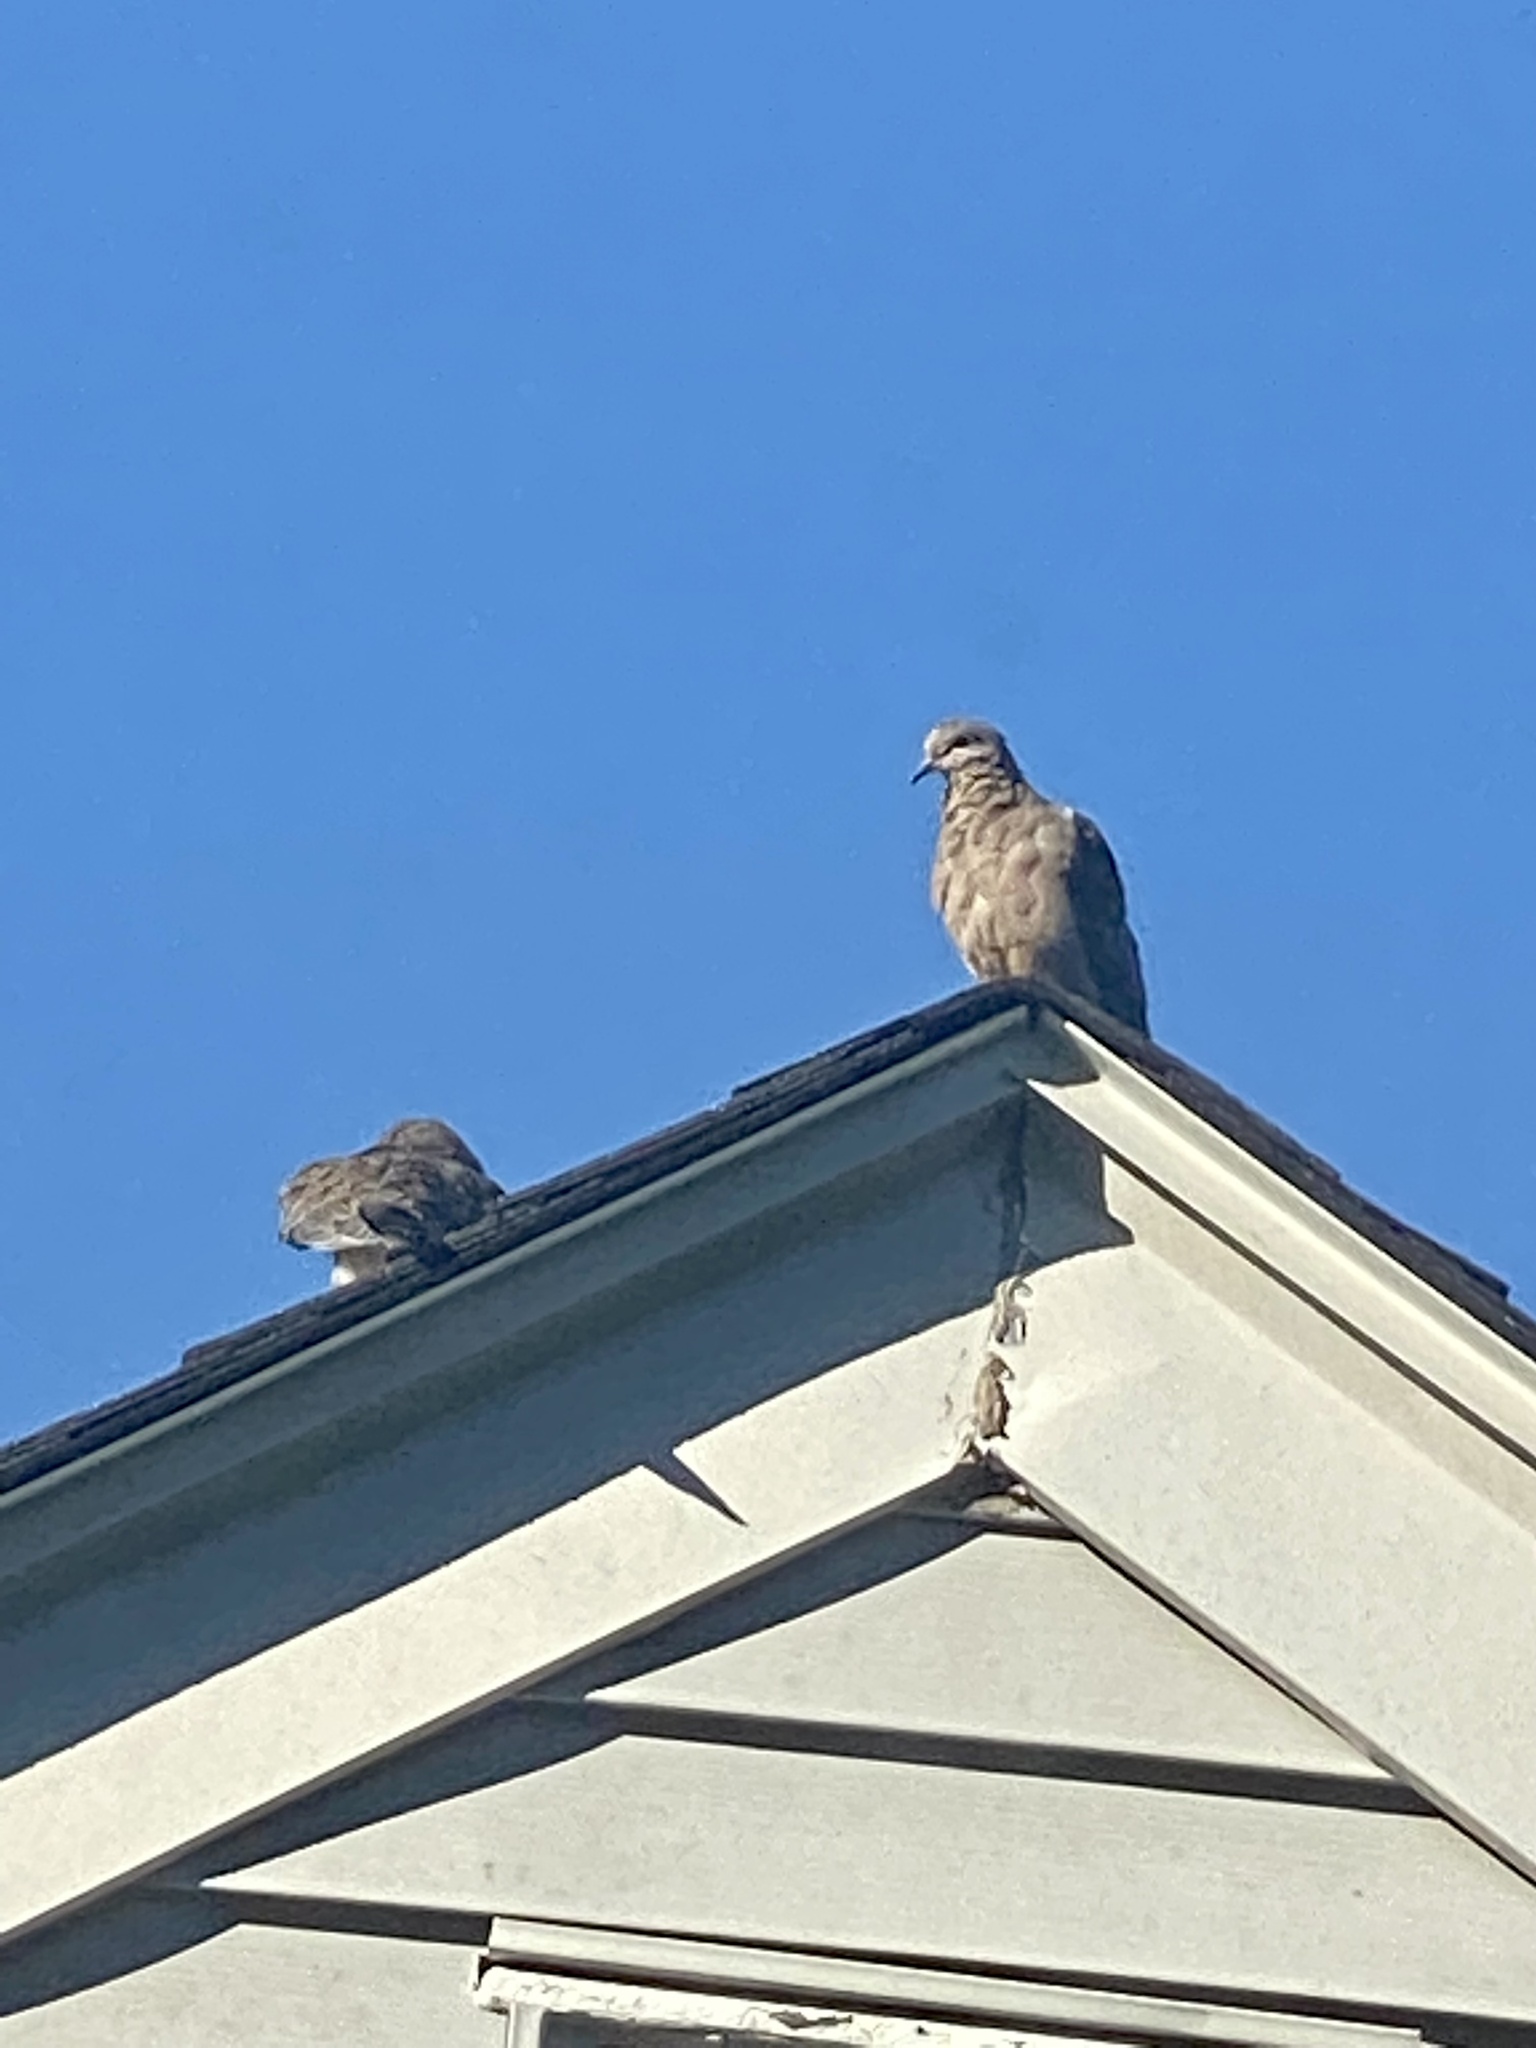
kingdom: Animalia
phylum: Chordata
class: Aves
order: Columbiformes
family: Columbidae
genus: Zenaida
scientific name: Zenaida macroura
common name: Mourning dove
